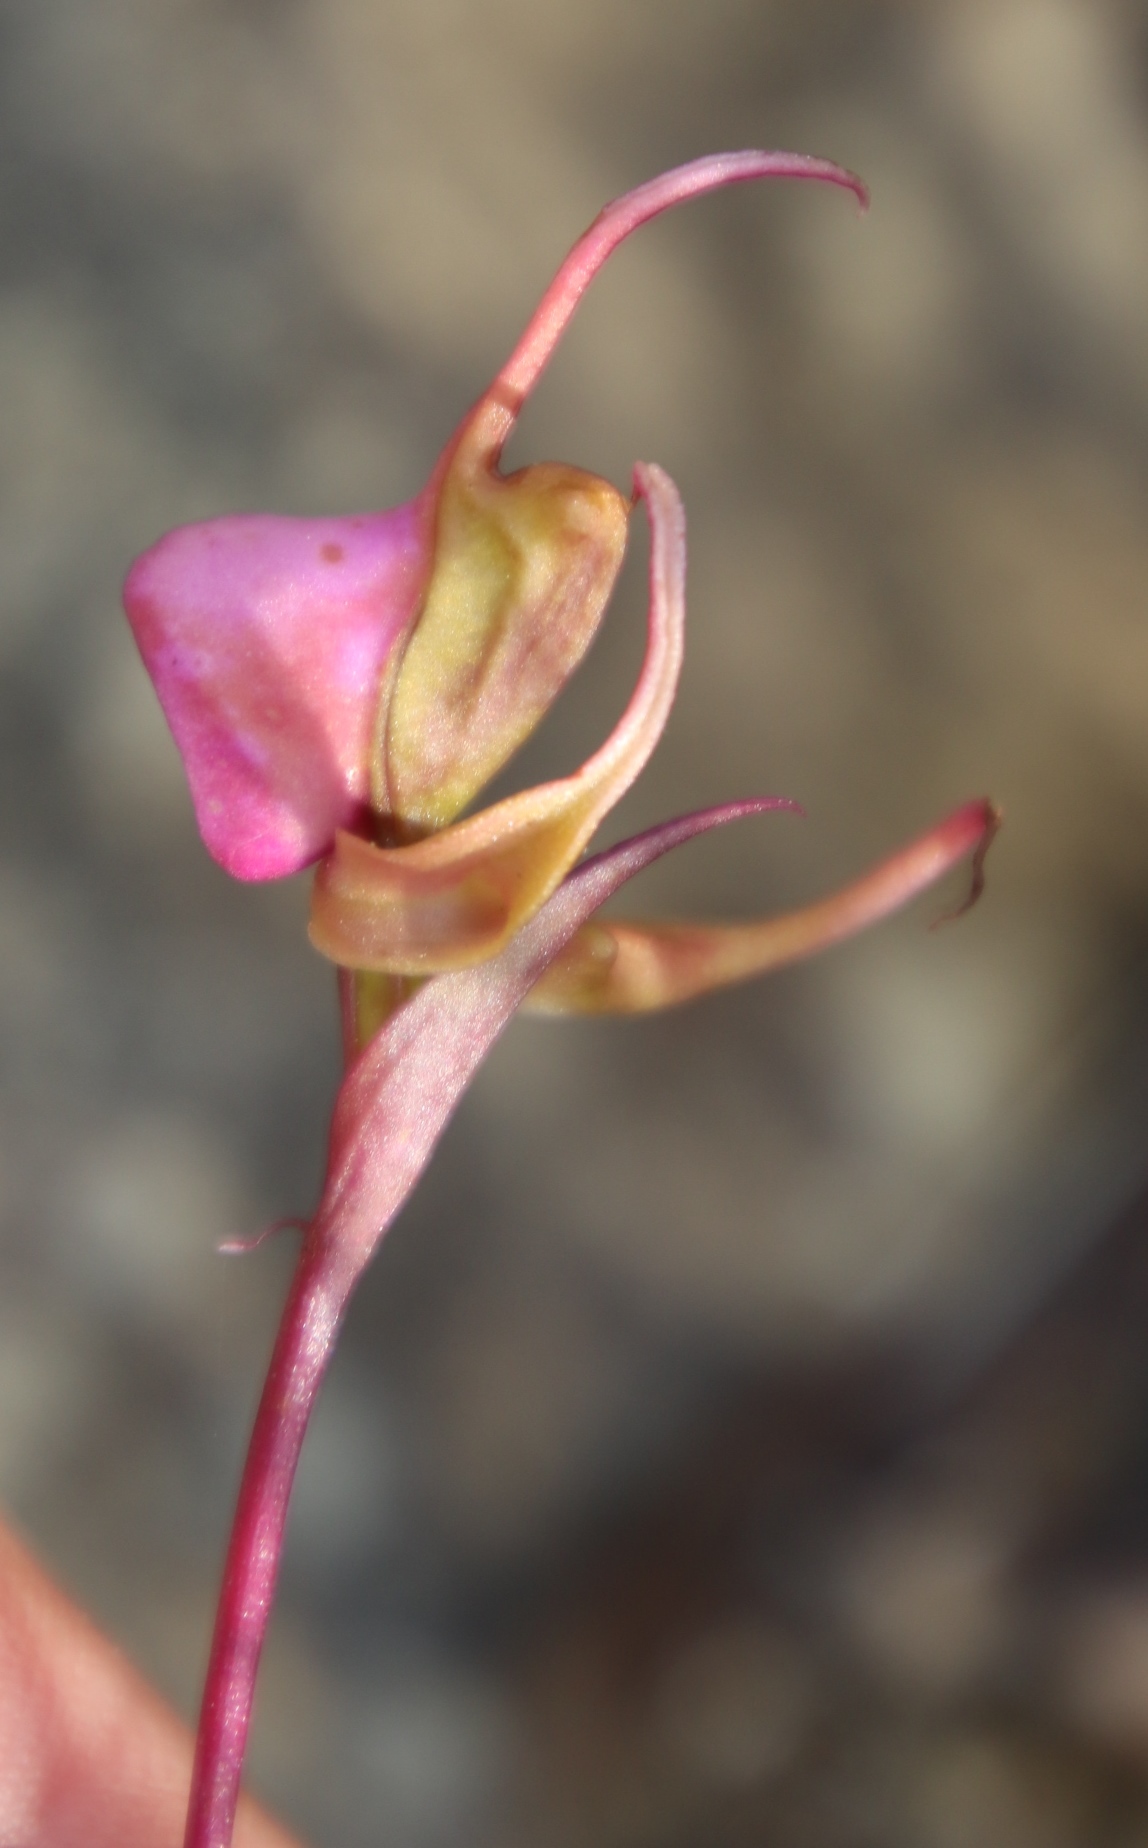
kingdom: Plantae
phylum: Tracheophyta
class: Liliopsida
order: Asparagales
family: Orchidaceae
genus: Disperis
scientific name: Disperis capensis
